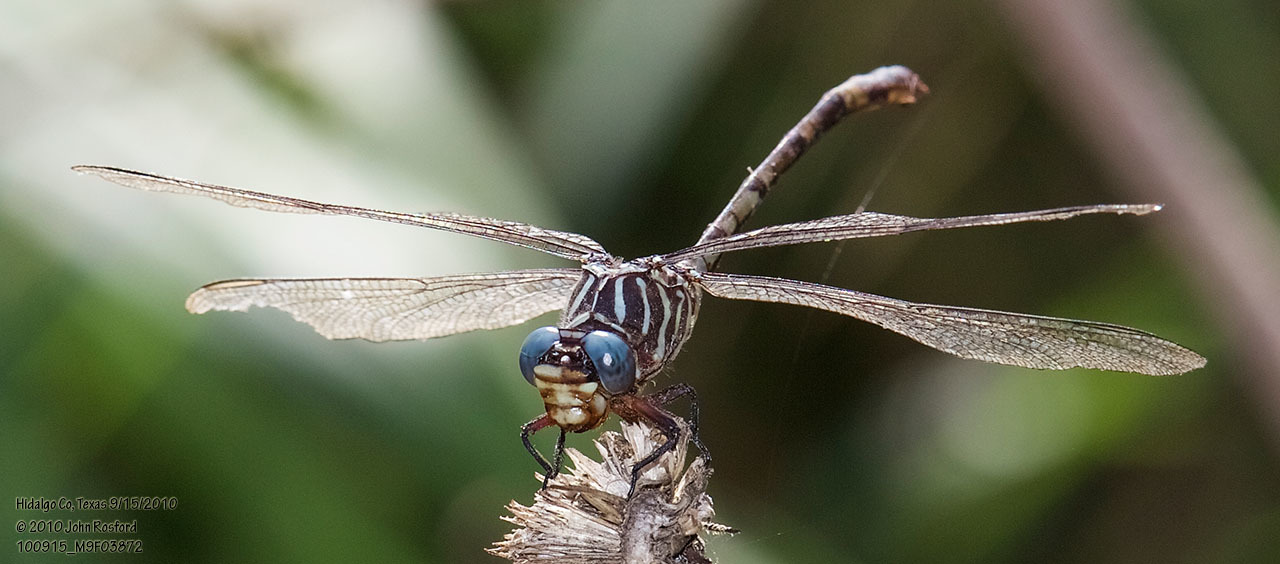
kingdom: Animalia
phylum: Arthropoda
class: Insecta
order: Odonata
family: Gomphidae
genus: Aphylla
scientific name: Aphylla protracta
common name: Narrow-striped forceptail
